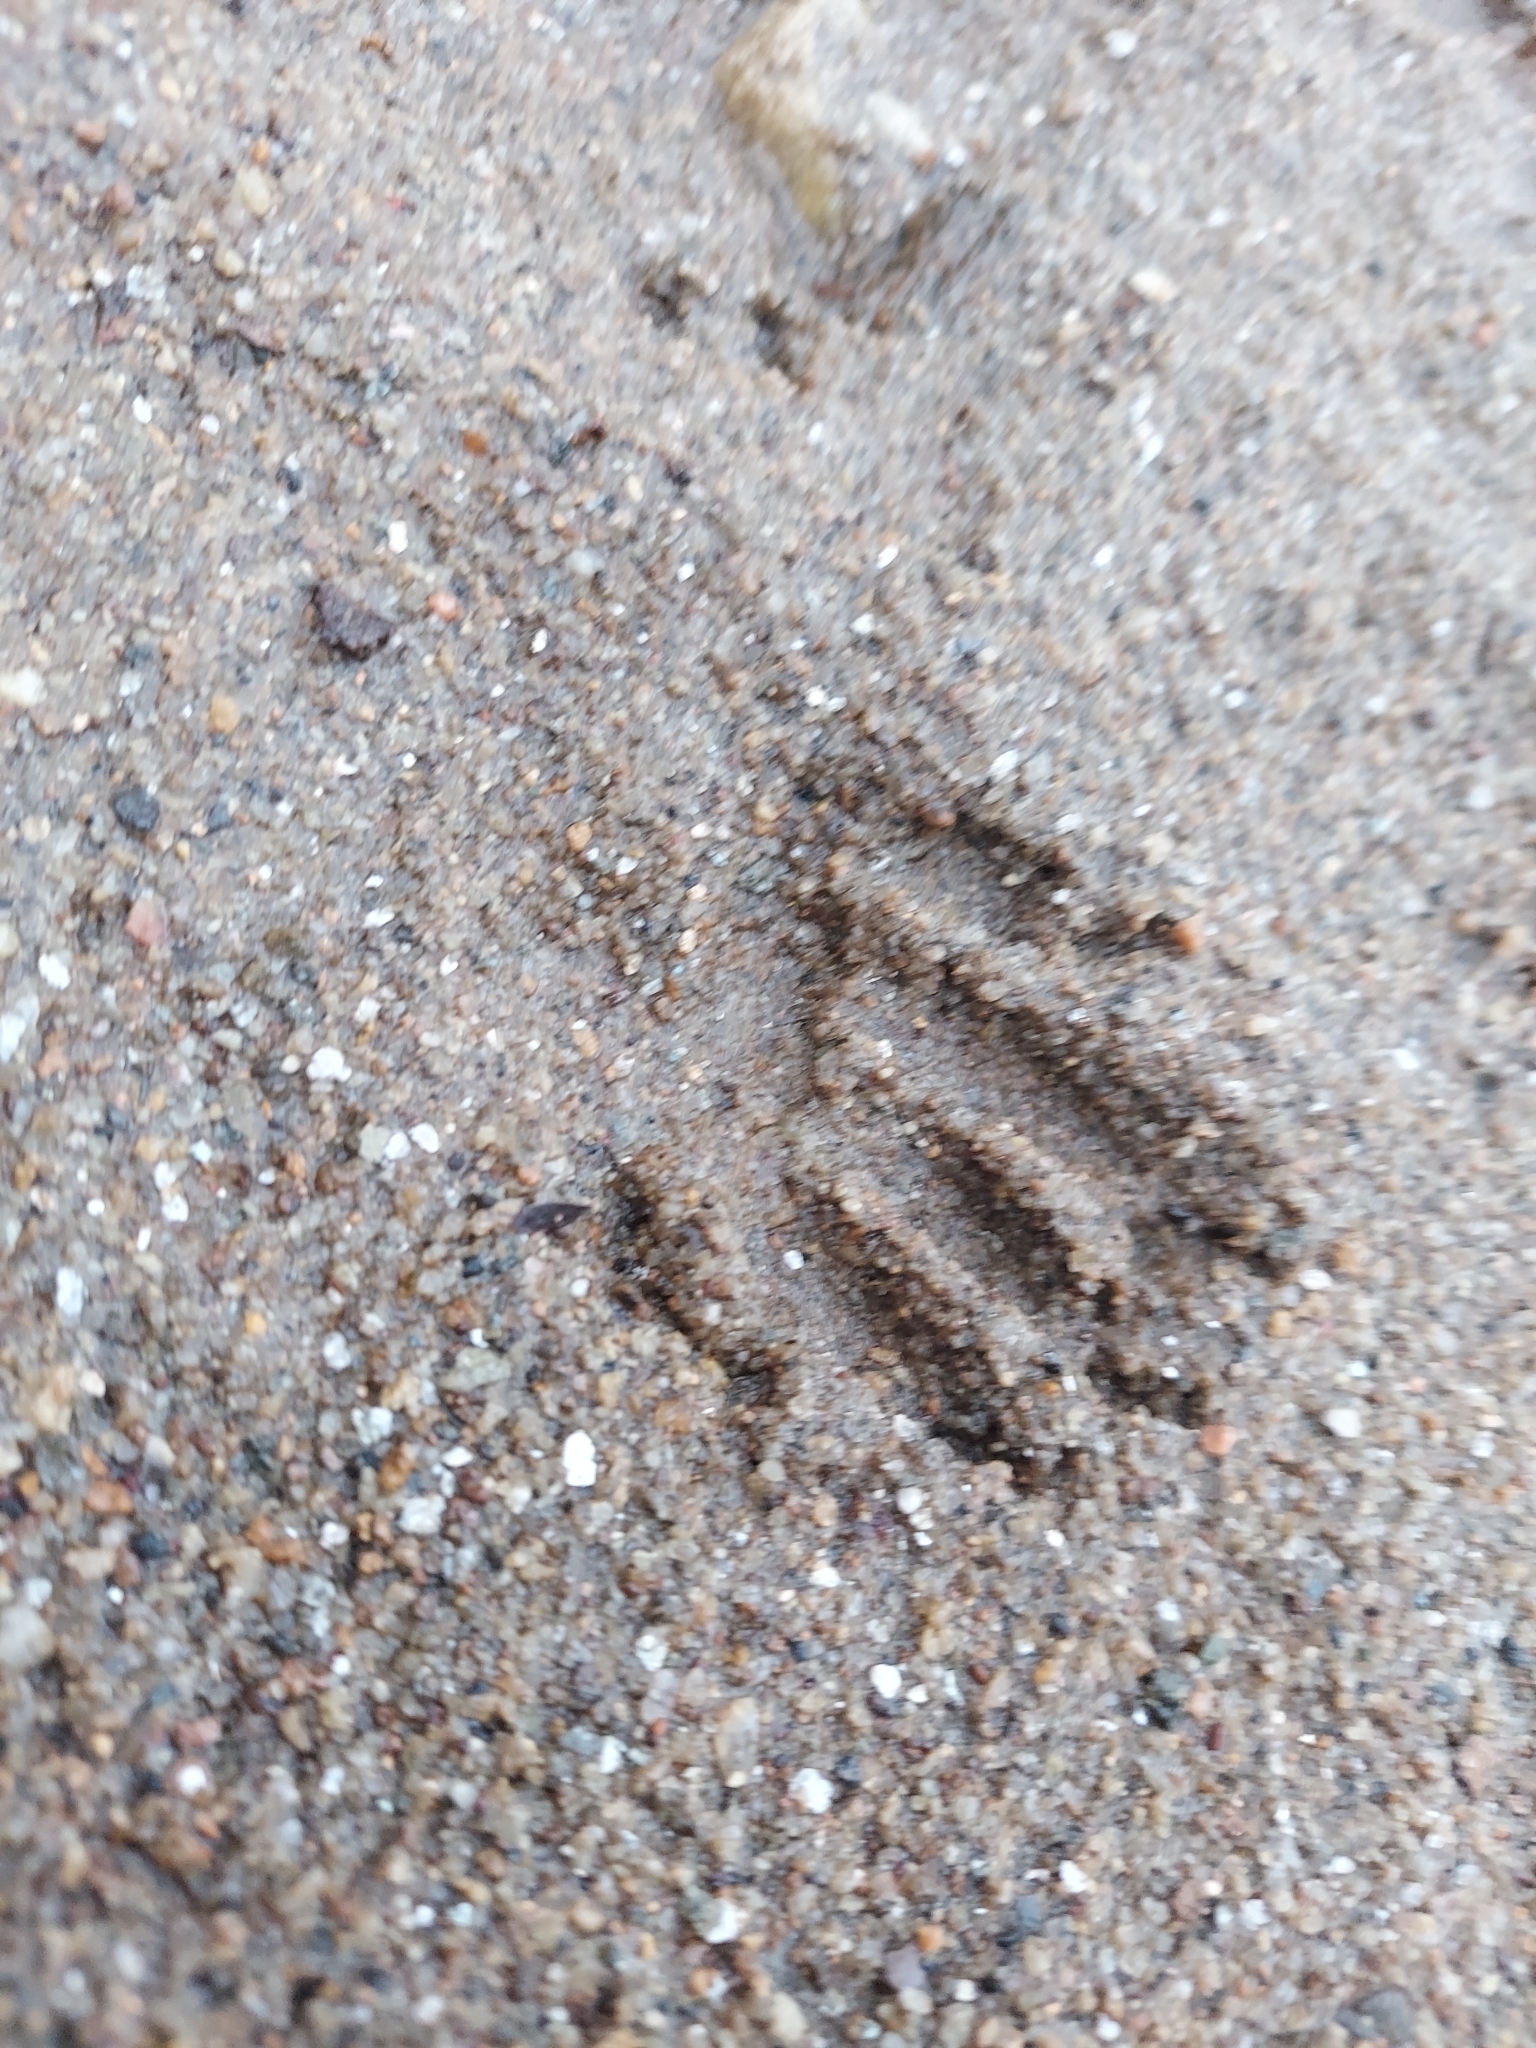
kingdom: Animalia
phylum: Chordata
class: Mammalia
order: Carnivora
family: Procyonidae
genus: Procyon
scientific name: Procyon lotor
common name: Raccoon
